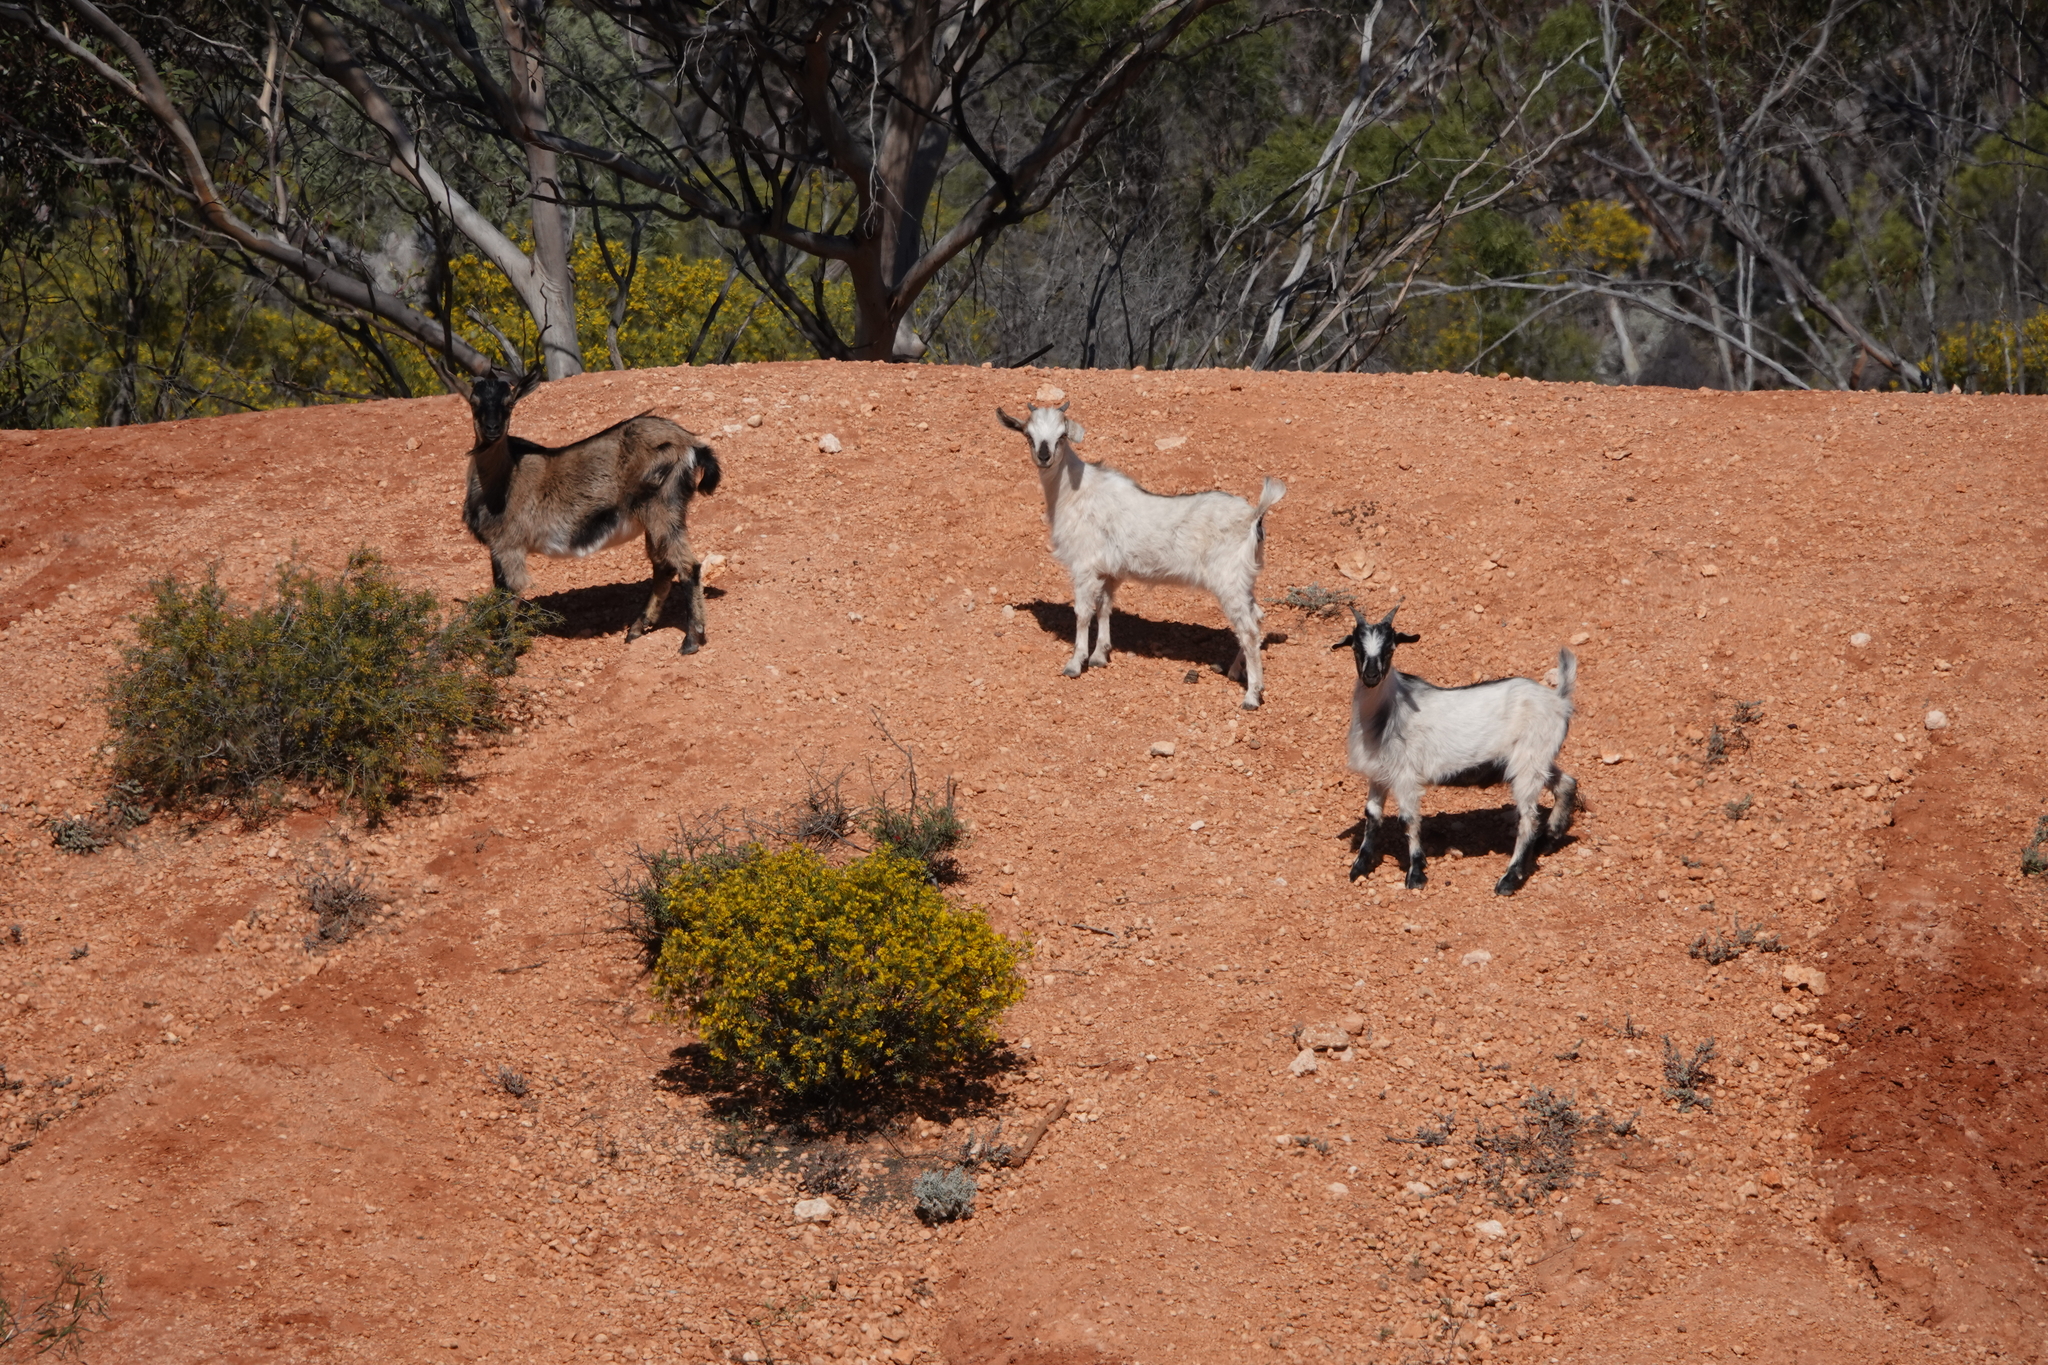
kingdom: Animalia
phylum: Chordata
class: Mammalia
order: Artiodactyla
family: Bovidae
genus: Capra
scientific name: Capra hircus
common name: Domestic goat
